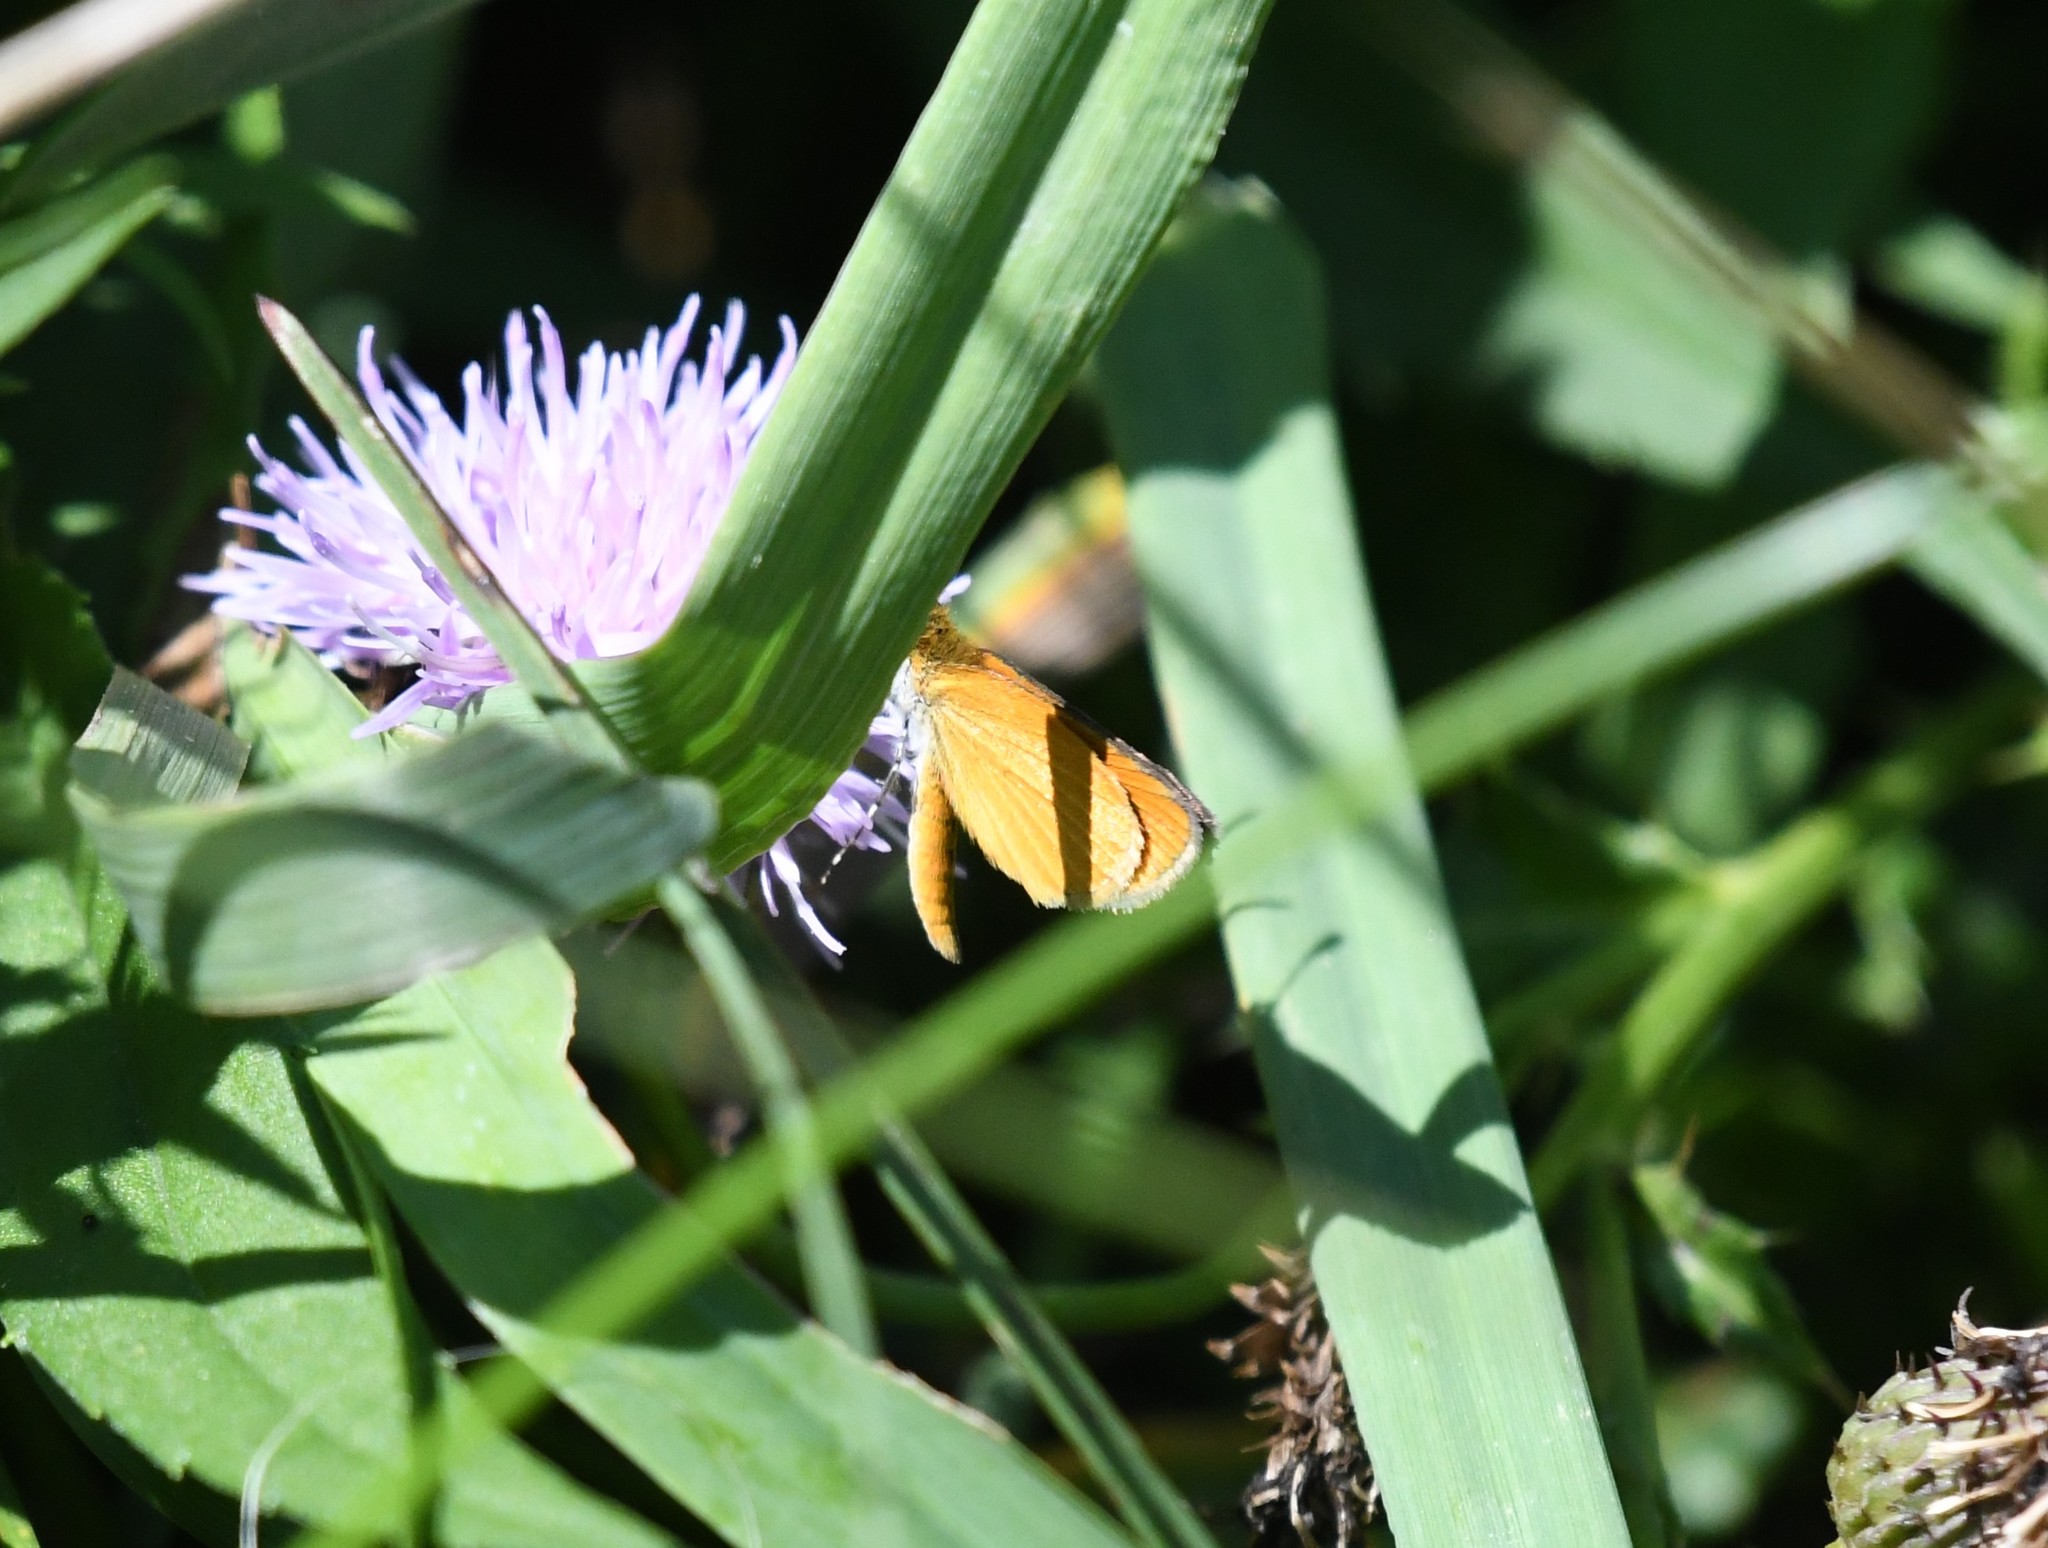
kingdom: Animalia
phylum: Arthropoda
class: Insecta
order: Lepidoptera
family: Hesperiidae
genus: Ancyloxypha
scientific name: Ancyloxypha numitor
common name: Least skipper
